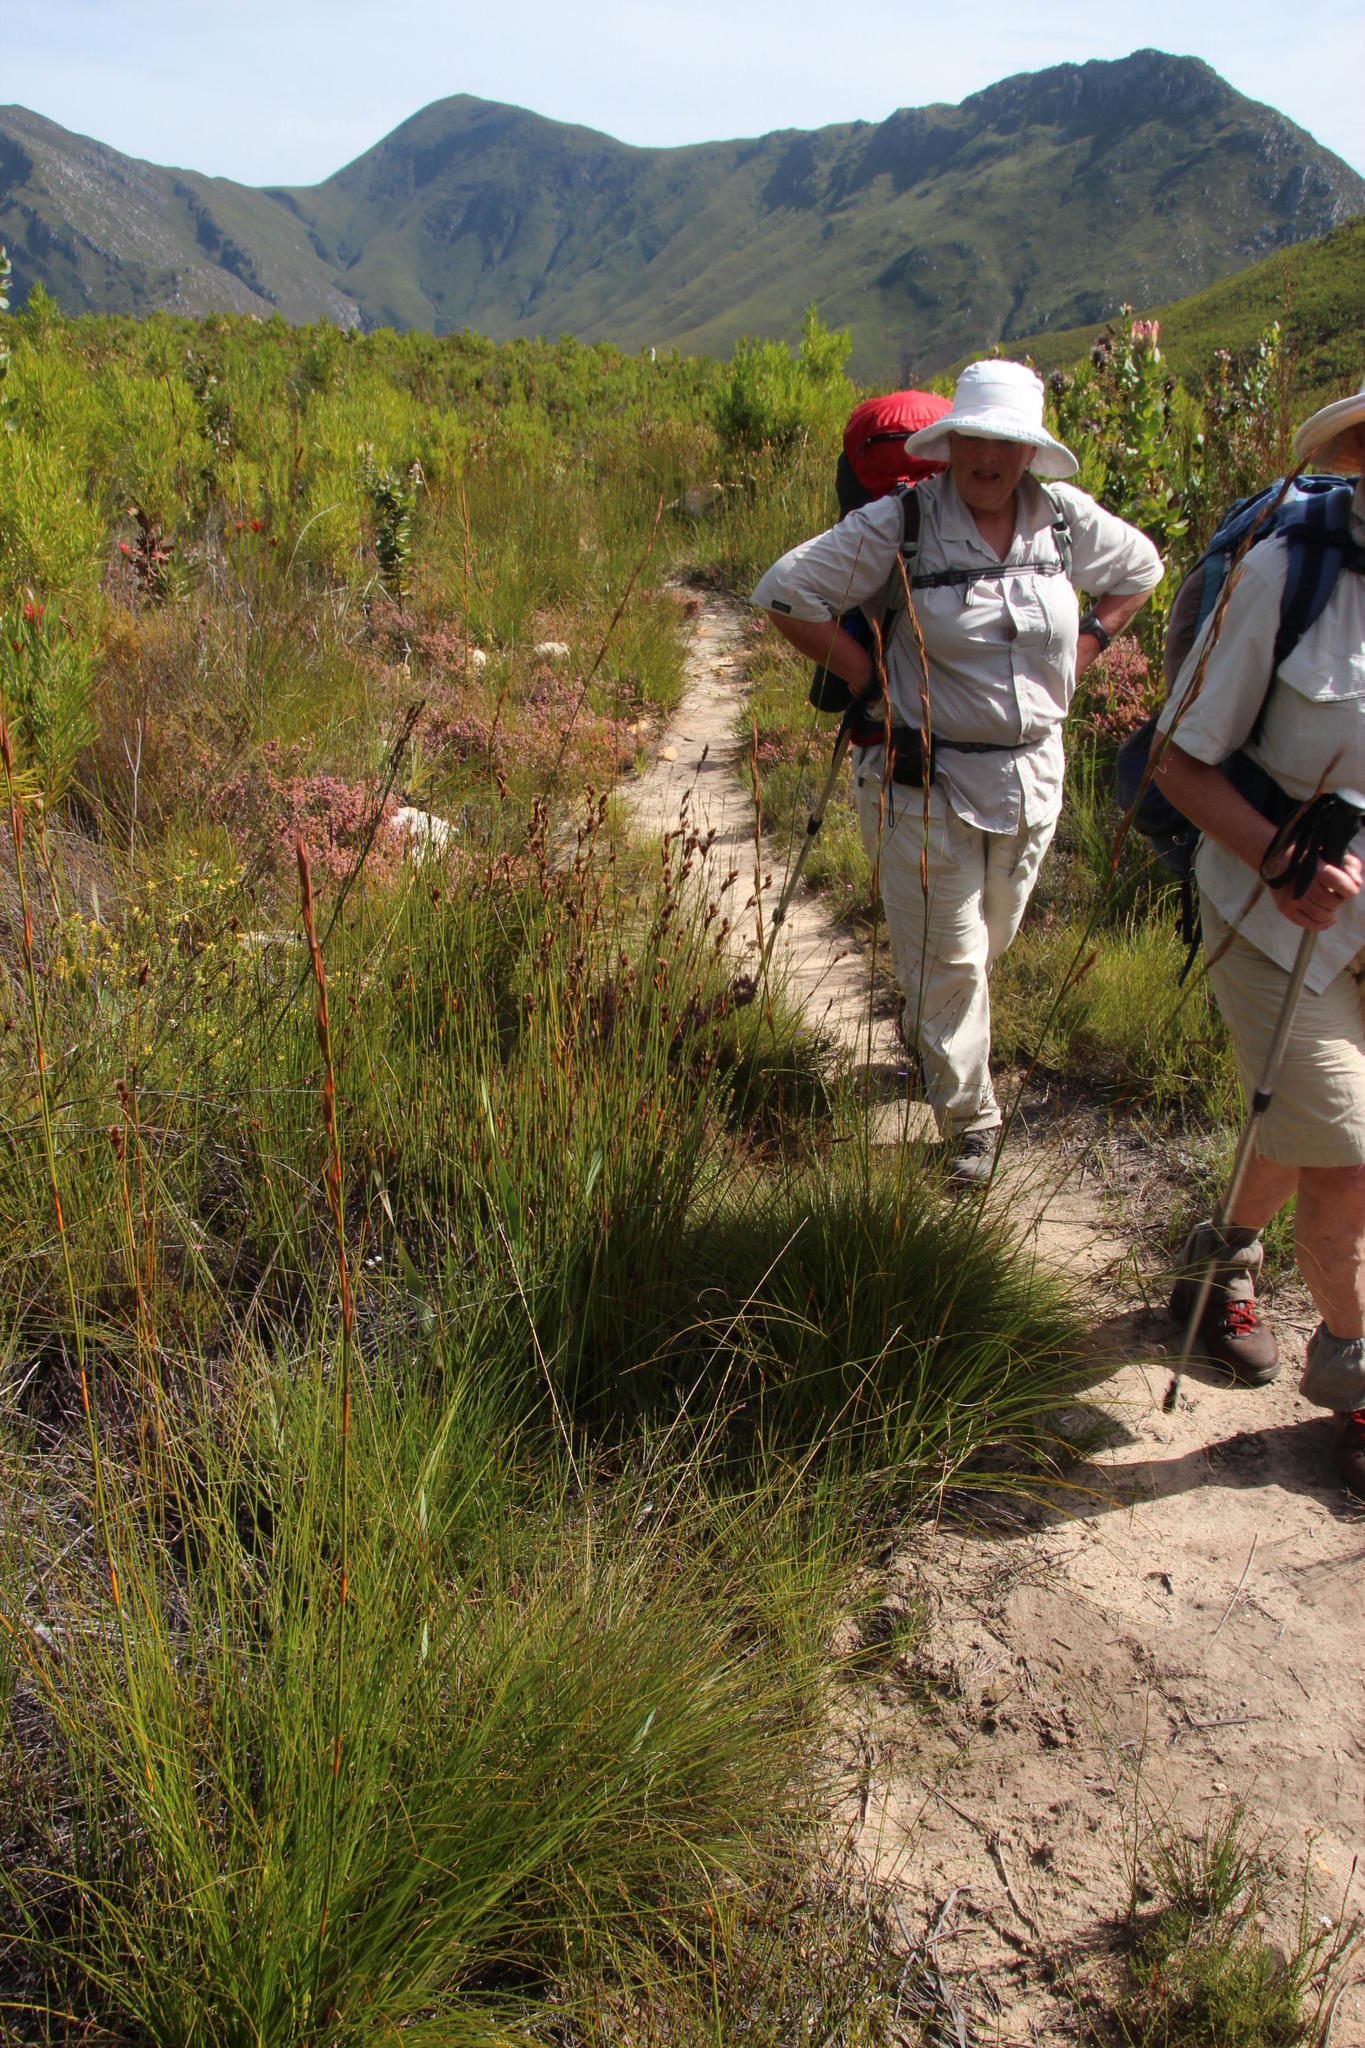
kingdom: Plantae
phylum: Tracheophyta
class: Liliopsida
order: Poales
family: Restionaceae
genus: Hypodiscus
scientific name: Hypodiscus aristatus
